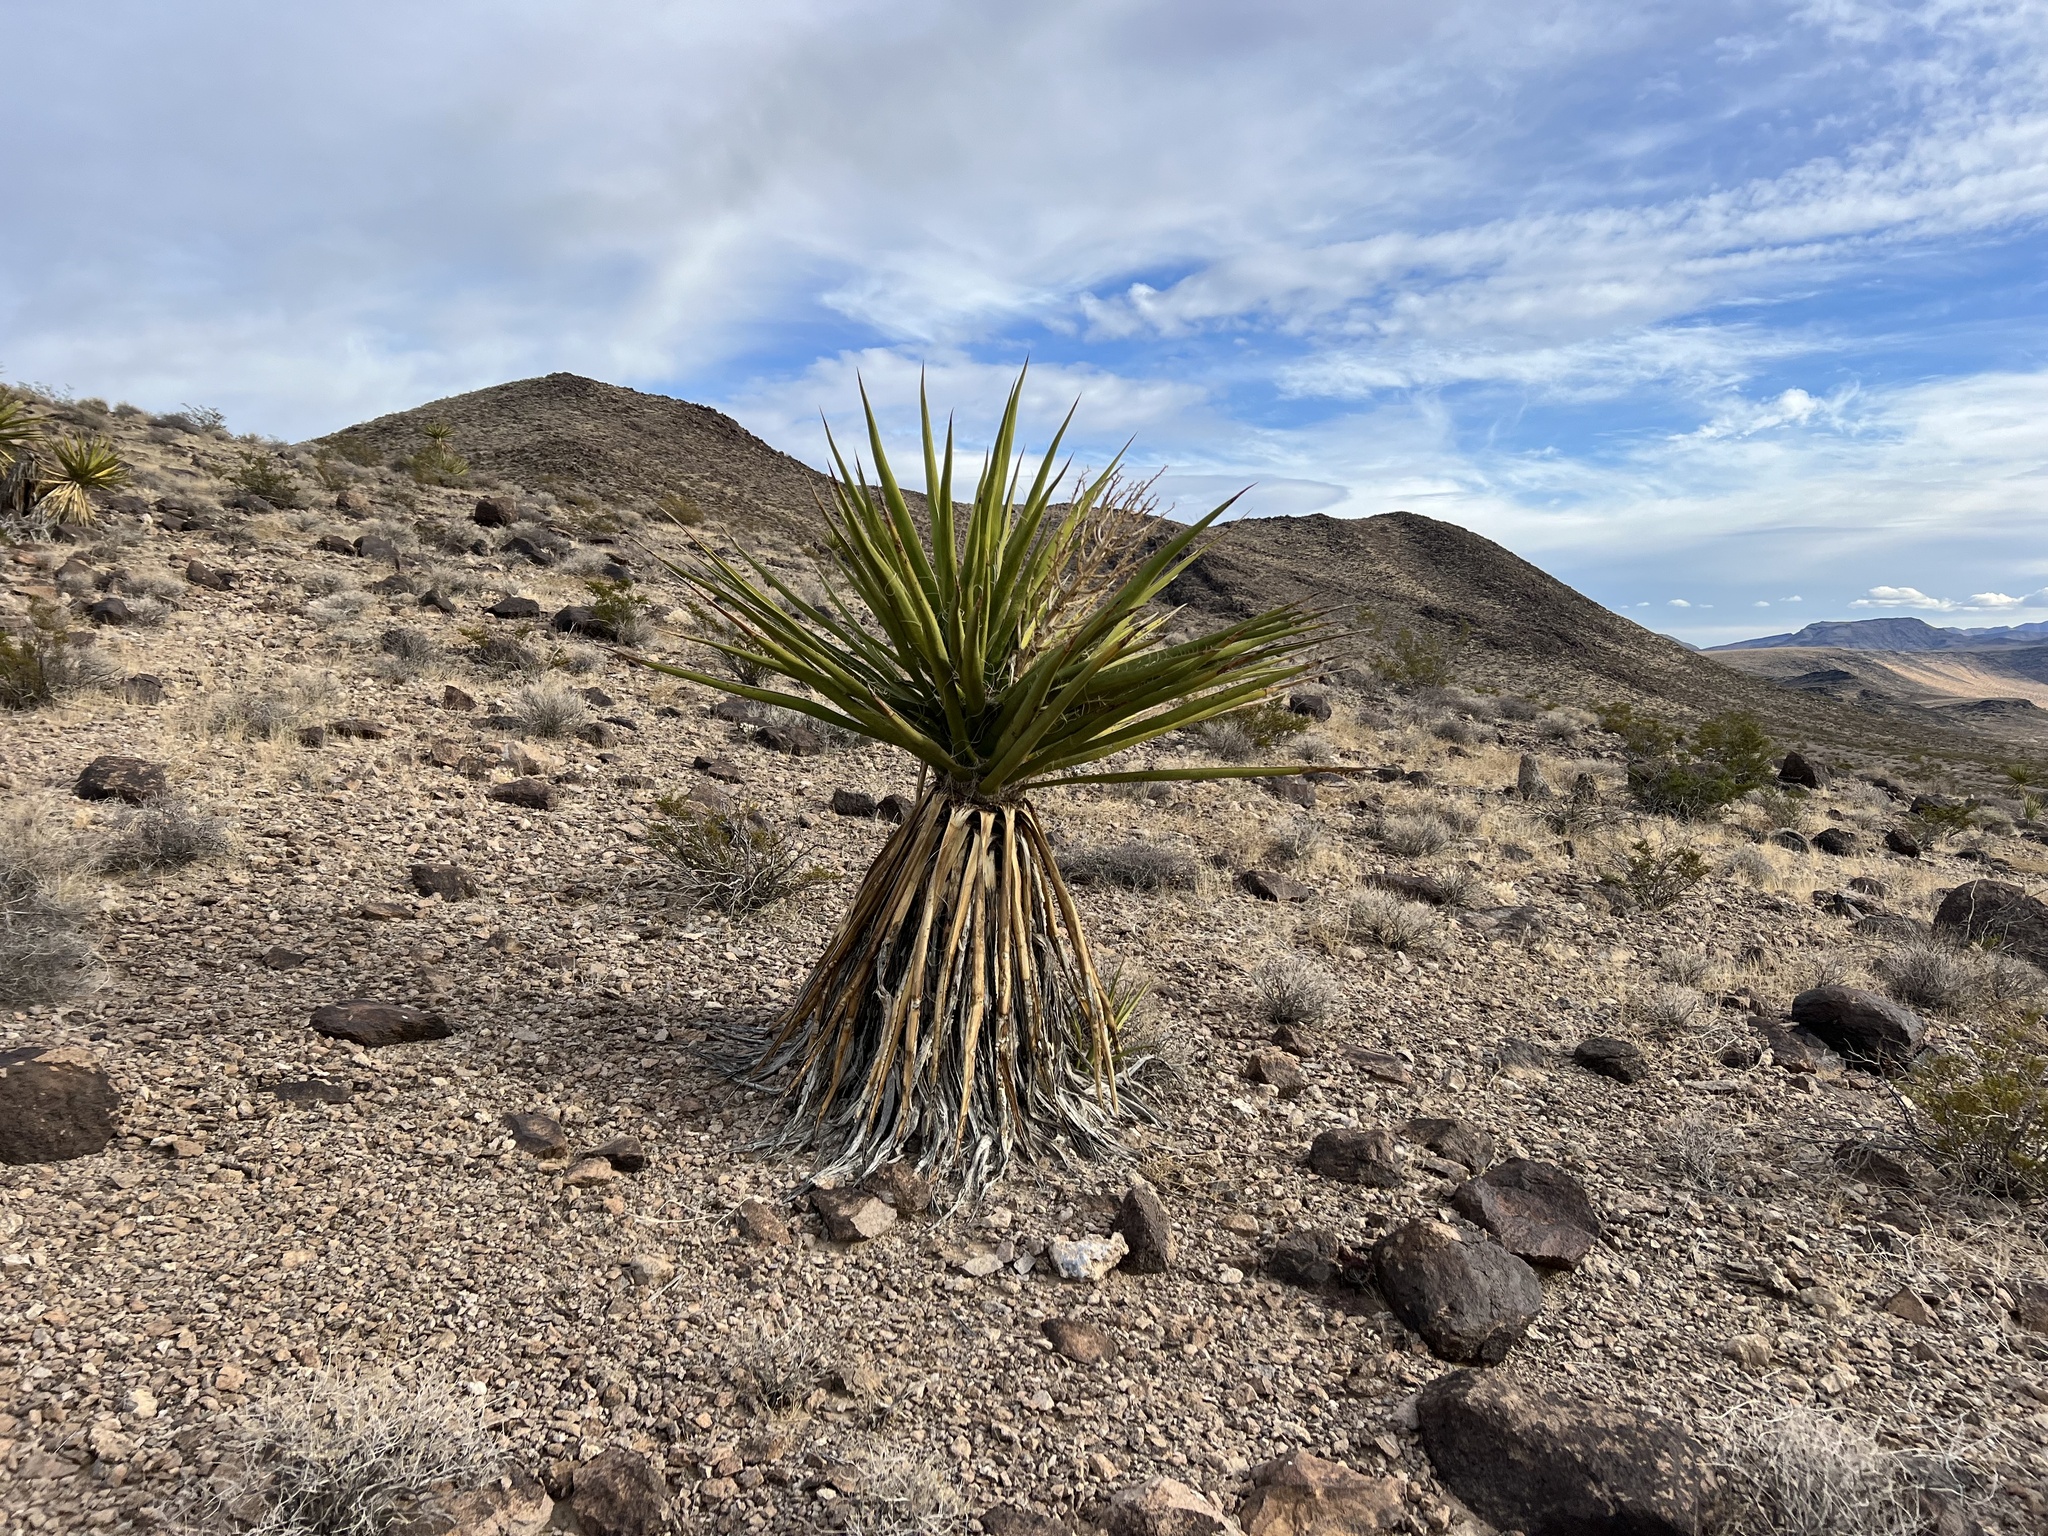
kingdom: Plantae
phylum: Tracheophyta
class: Liliopsida
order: Asparagales
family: Asparagaceae
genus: Yucca
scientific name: Yucca schidigera
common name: Mojave yucca
